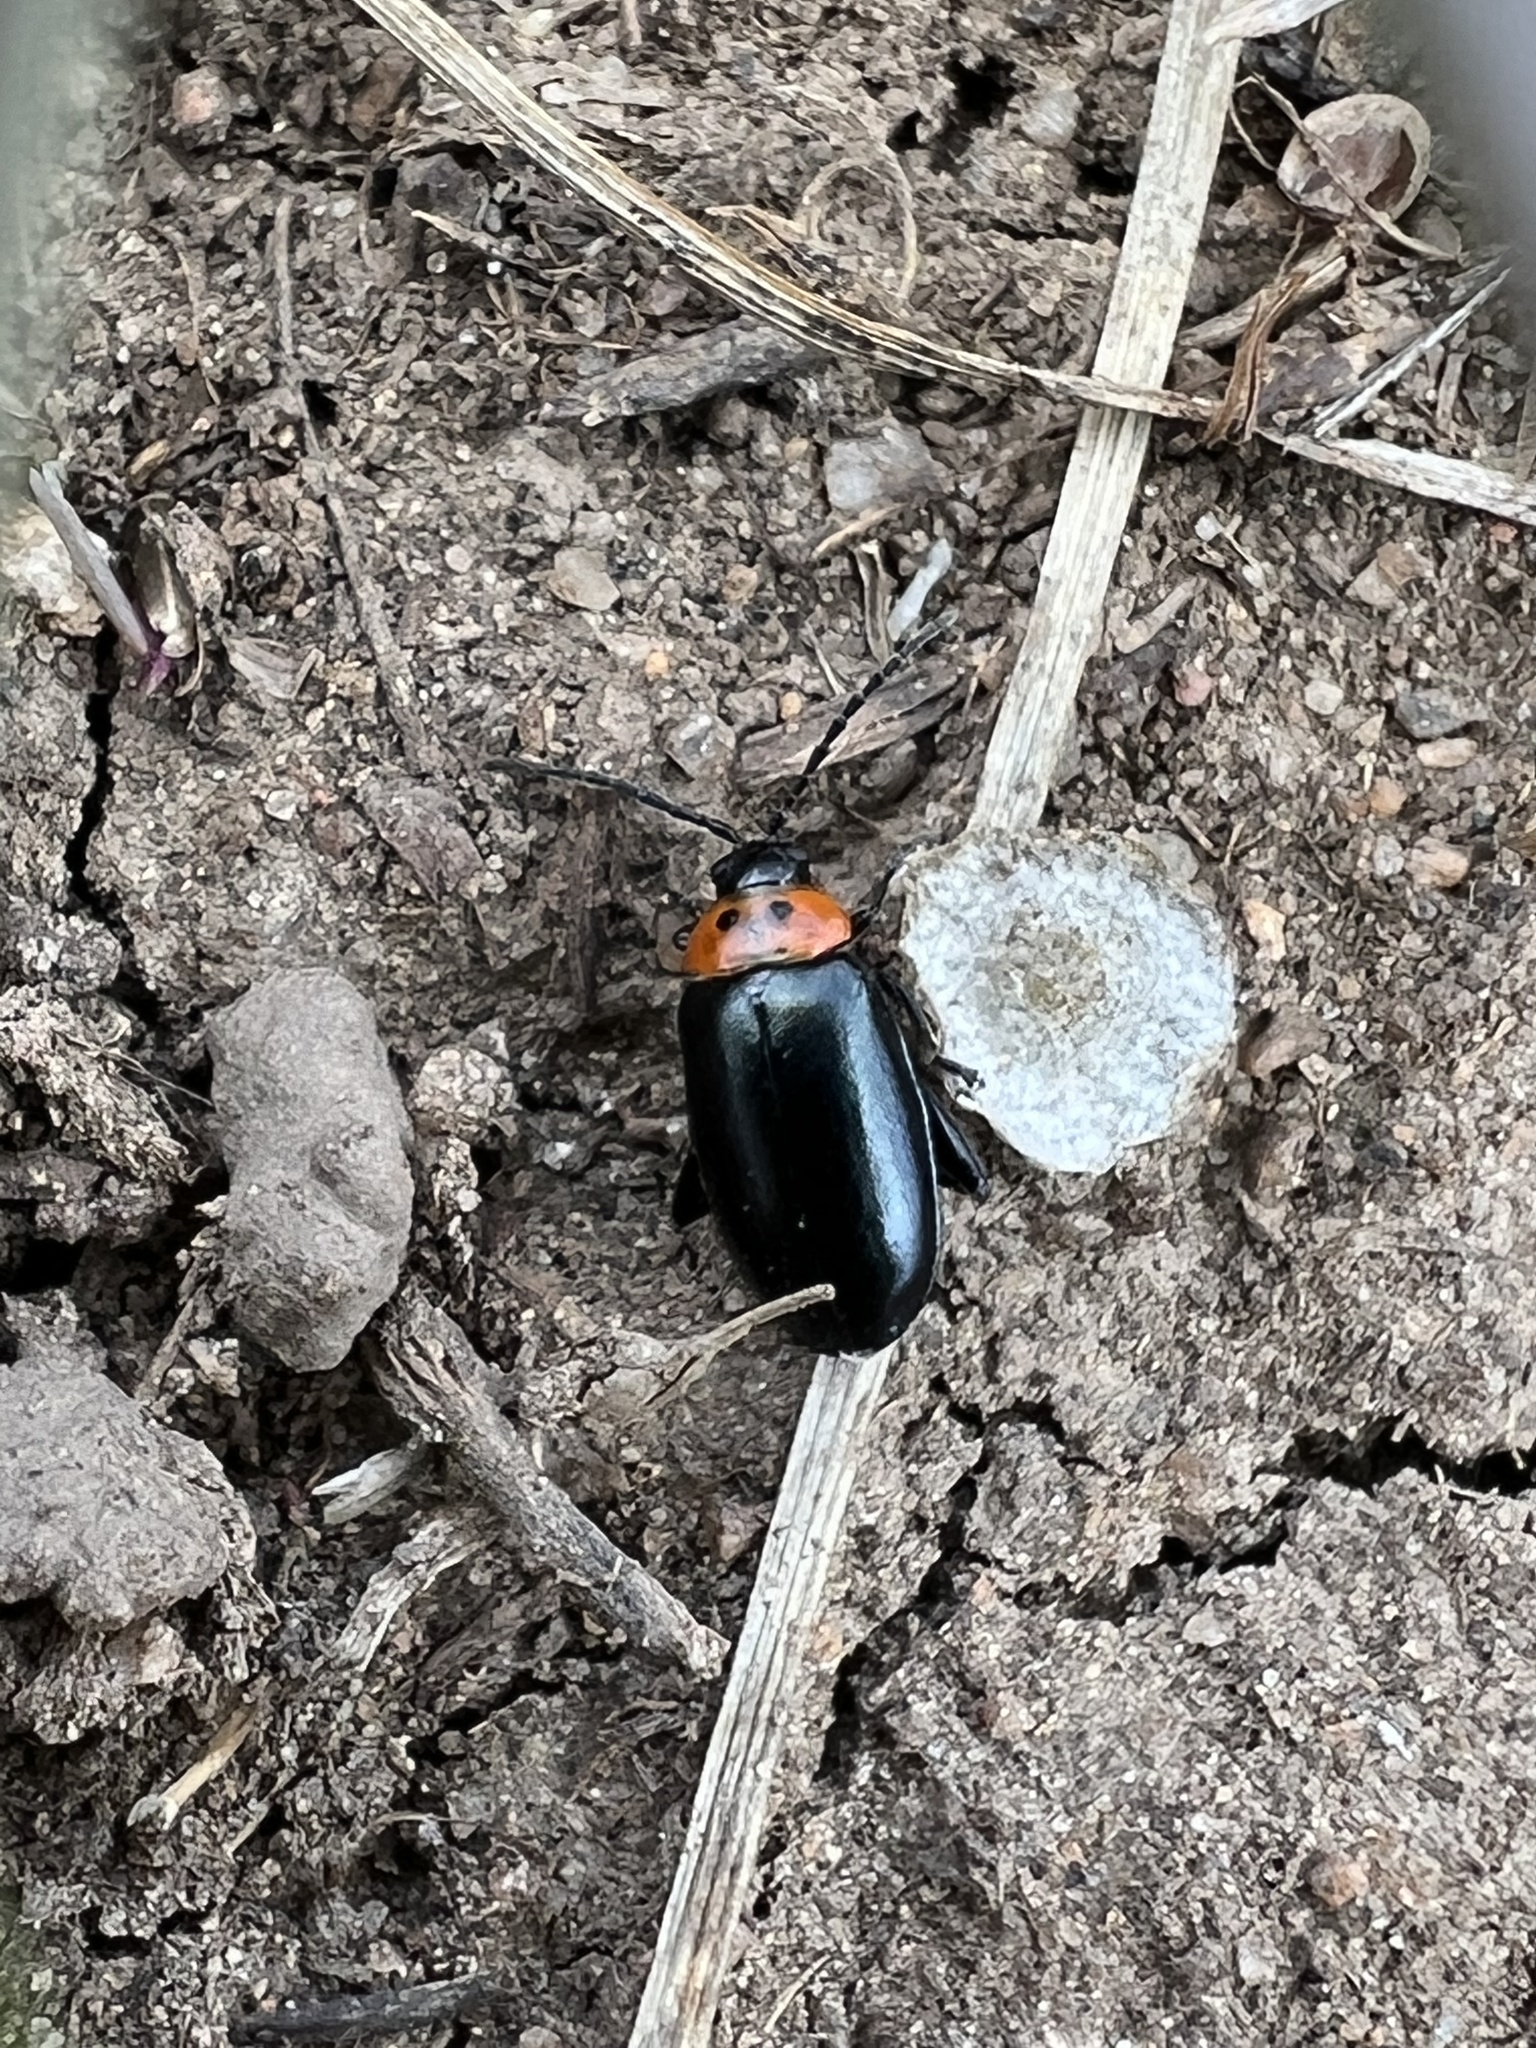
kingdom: Animalia
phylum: Arthropoda
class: Insecta
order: Coleoptera
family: Chrysomelidae
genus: Disonycha
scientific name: Disonycha triangularis
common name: Three-spotted flea beetle
